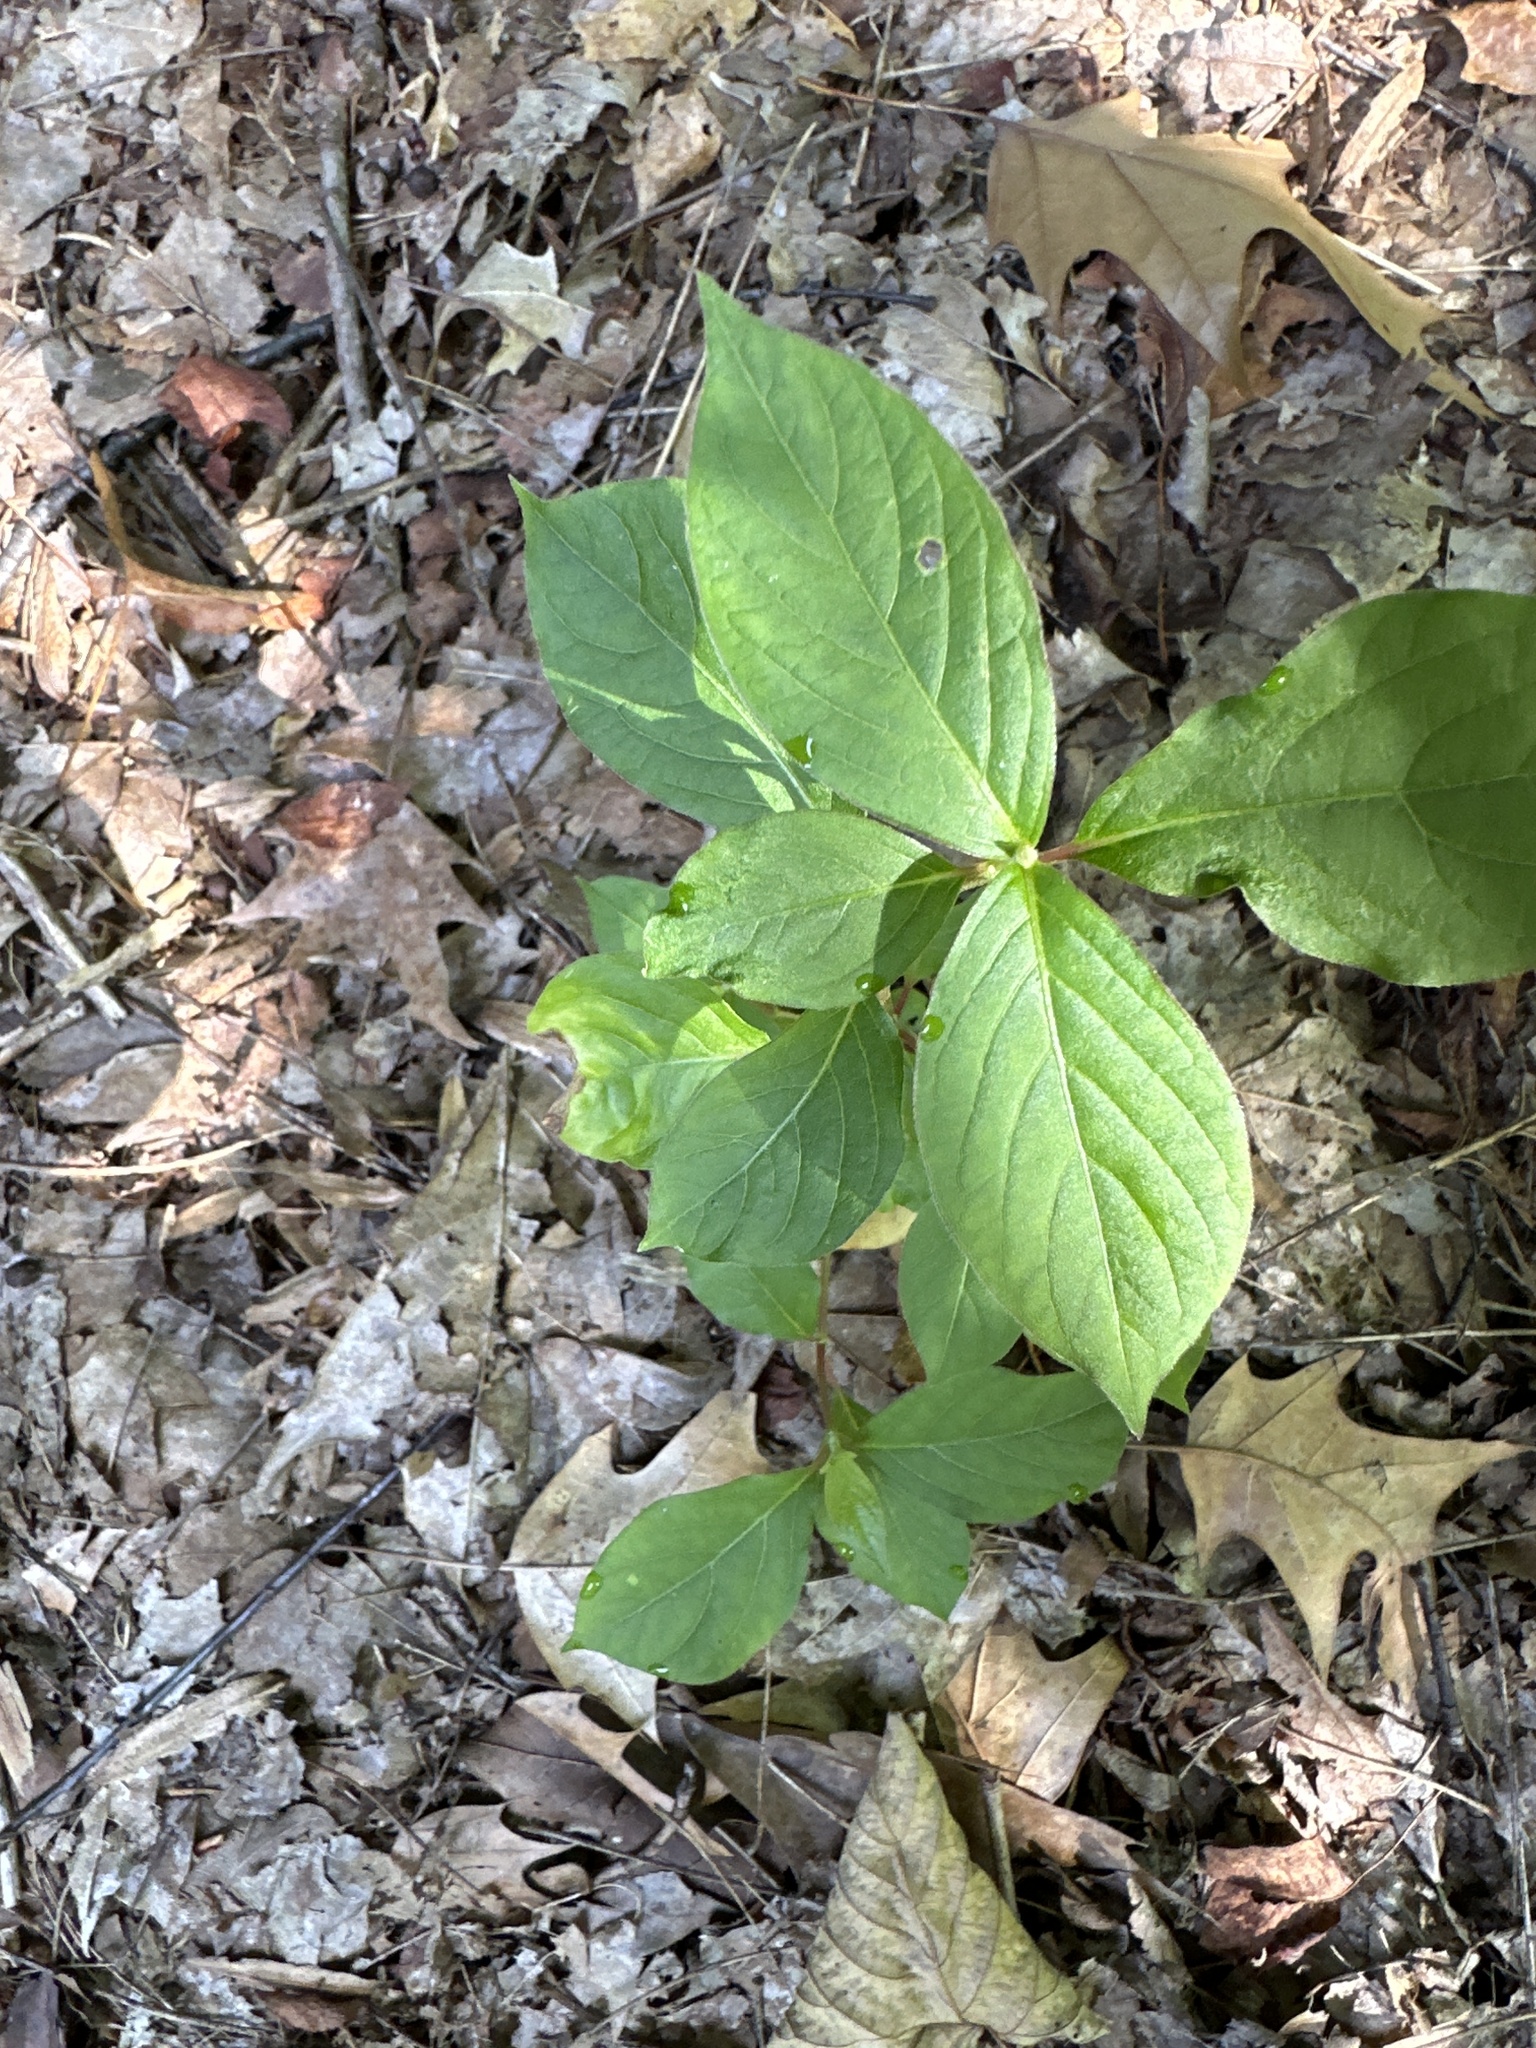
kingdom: Plantae
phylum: Tracheophyta
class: Magnoliopsida
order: Caryophyllales
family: Amaranthaceae
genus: Achyranthes
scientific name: Achyranthes bidentata
